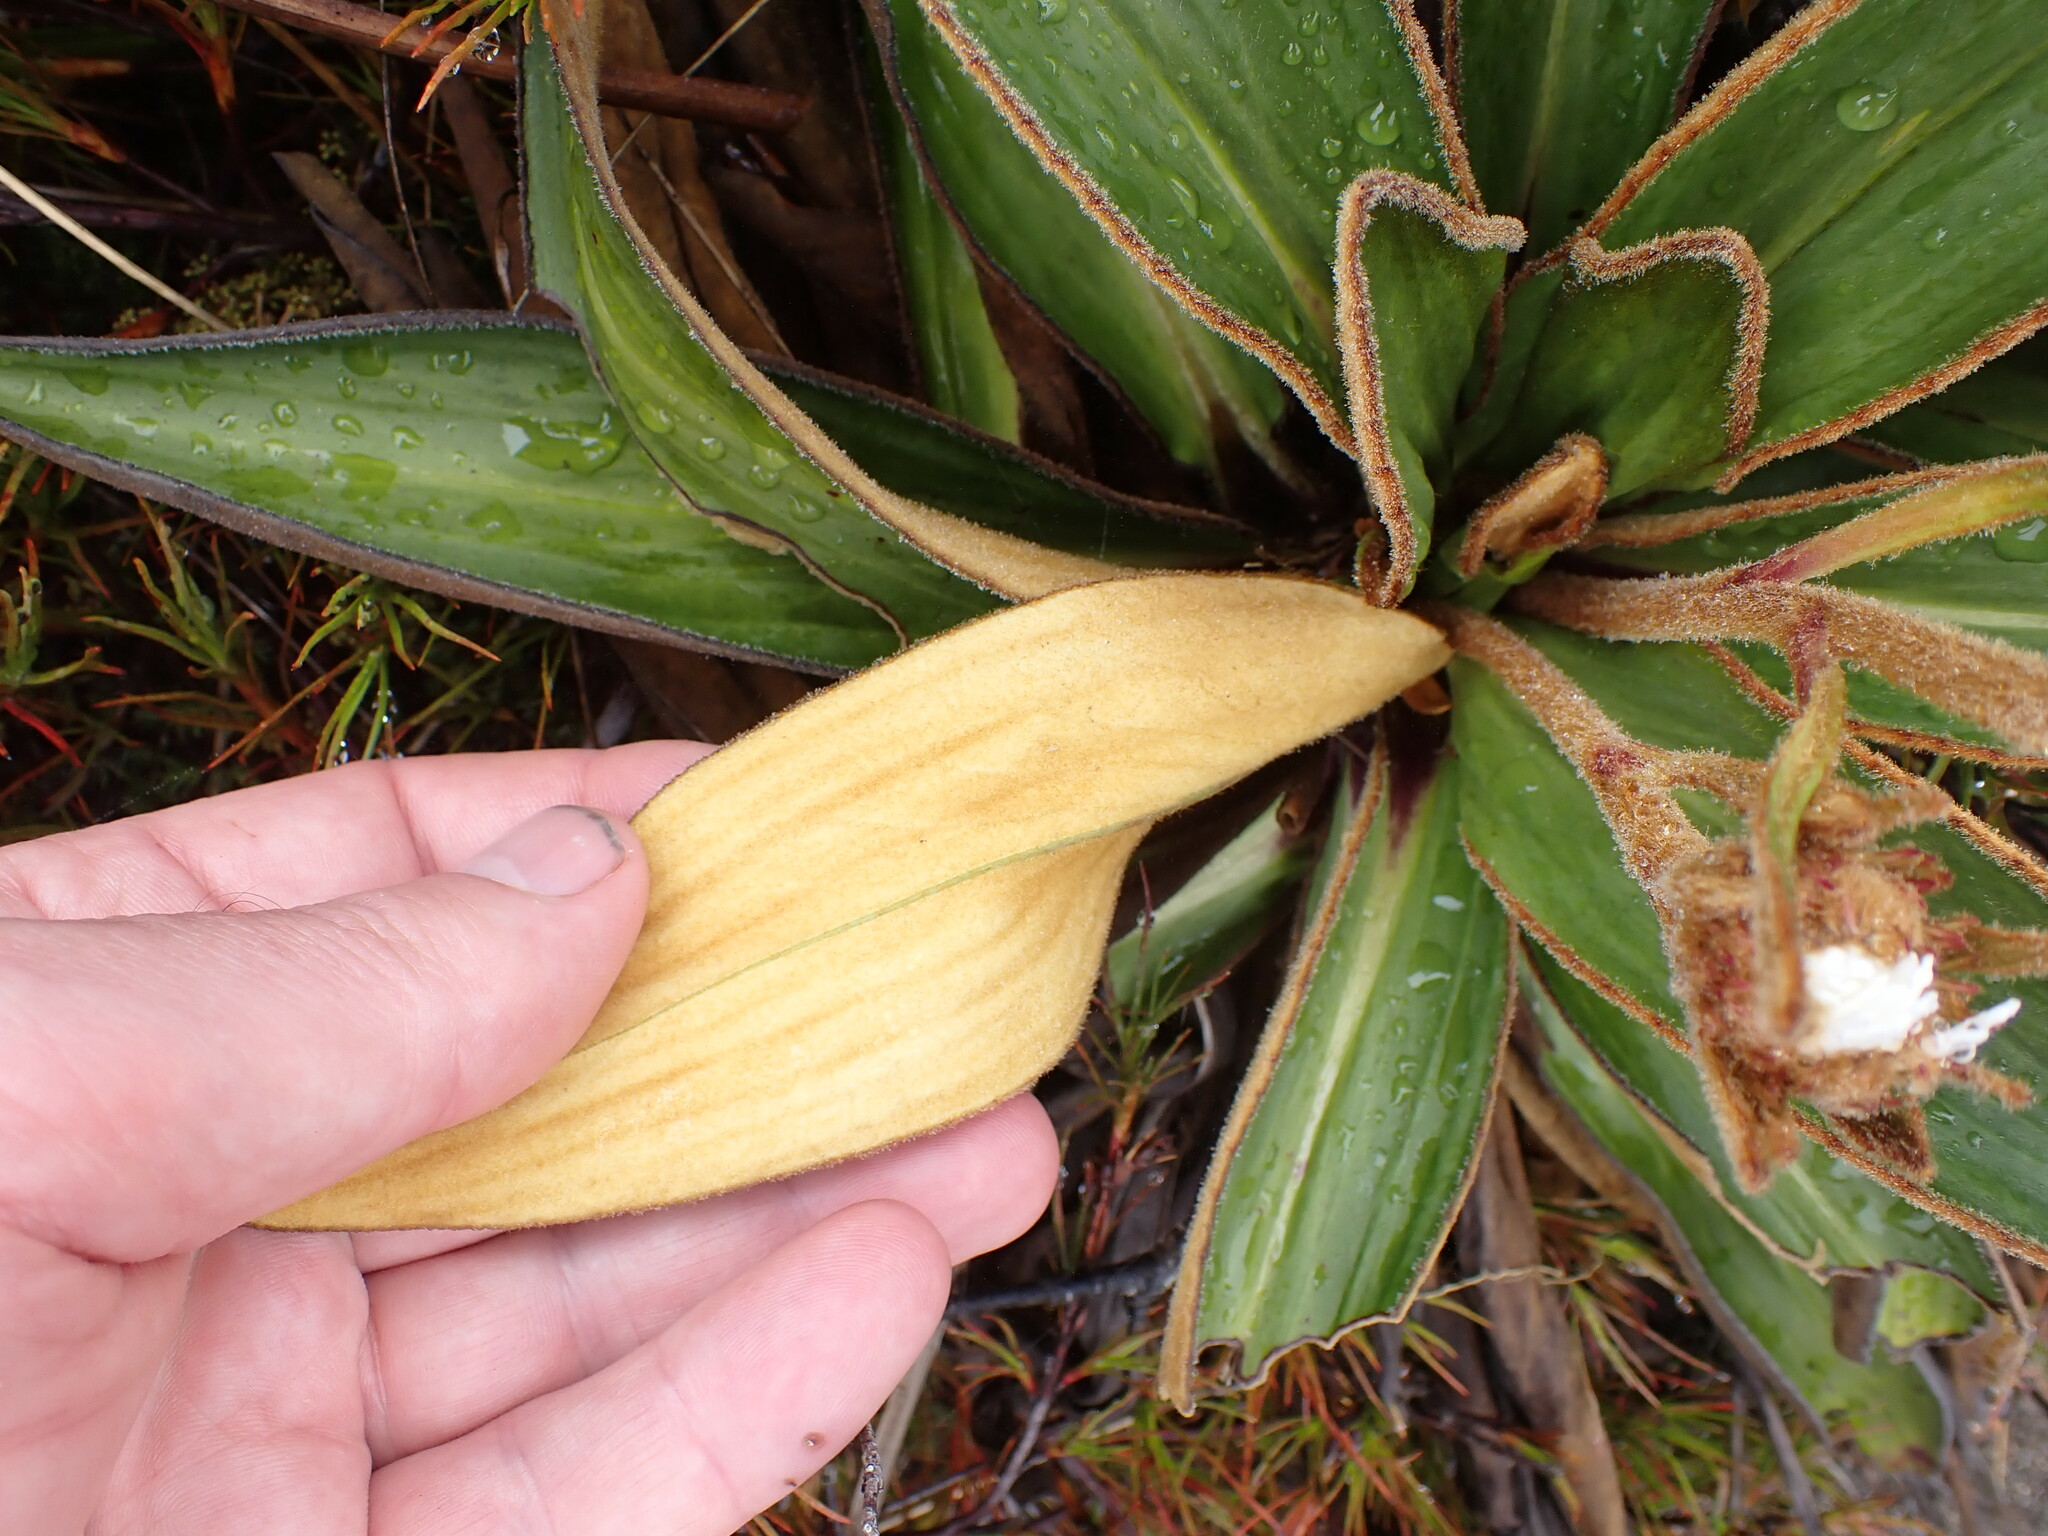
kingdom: Plantae
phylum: Tracheophyta
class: Magnoliopsida
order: Asterales
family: Asteraceae
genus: Celmisia
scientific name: Celmisia traversii
